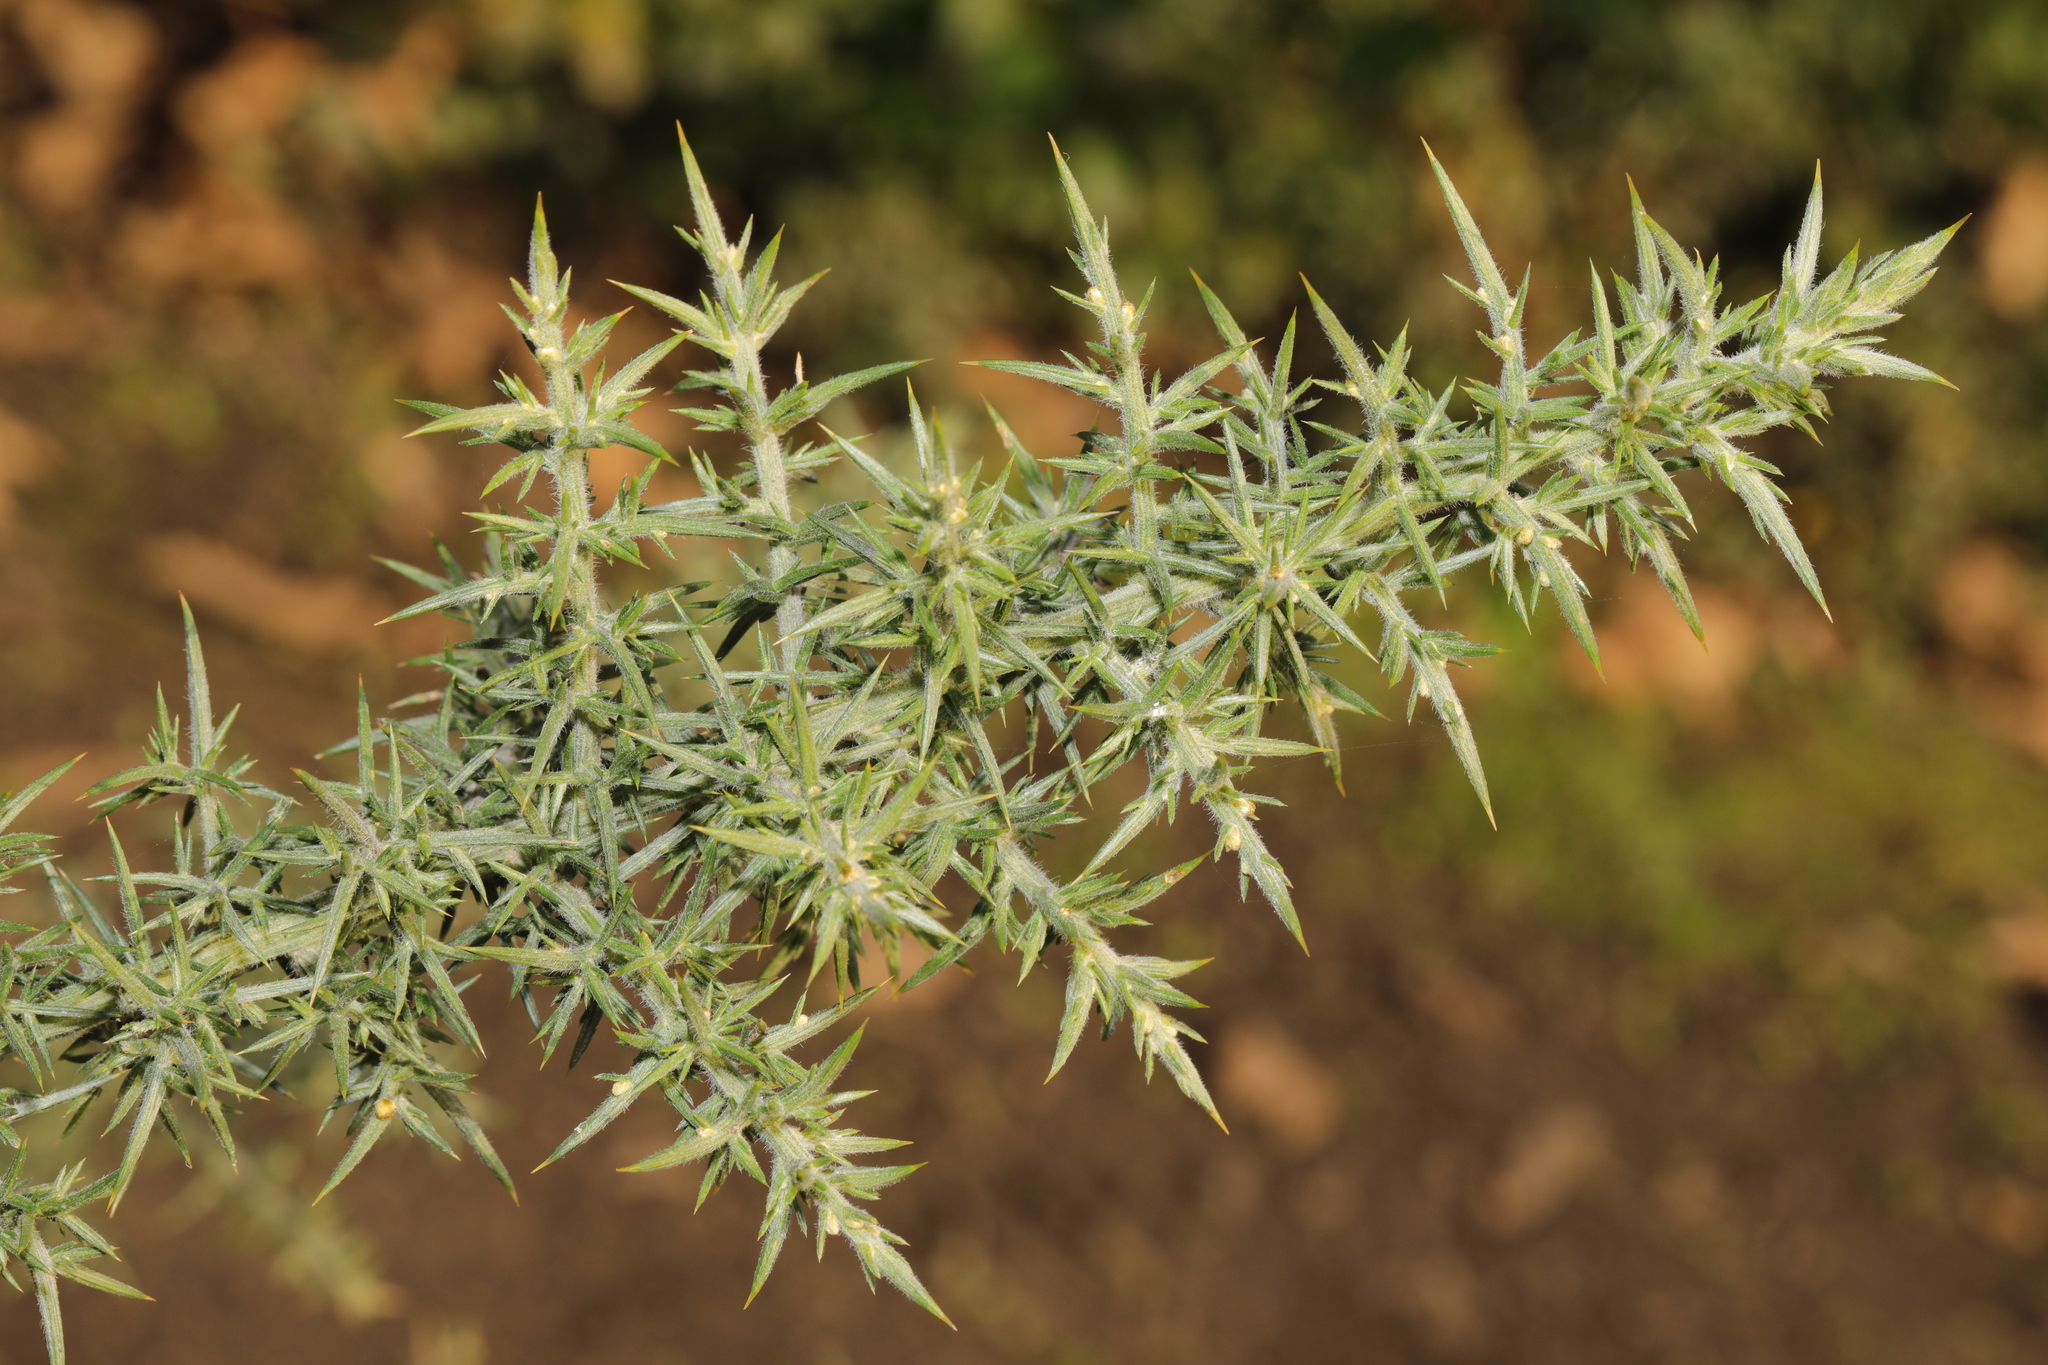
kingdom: Plantae
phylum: Tracheophyta
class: Magnoliopsida
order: Fabales
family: Fabaceae
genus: Ulex
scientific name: Ulex europaeus
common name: Common gorse
